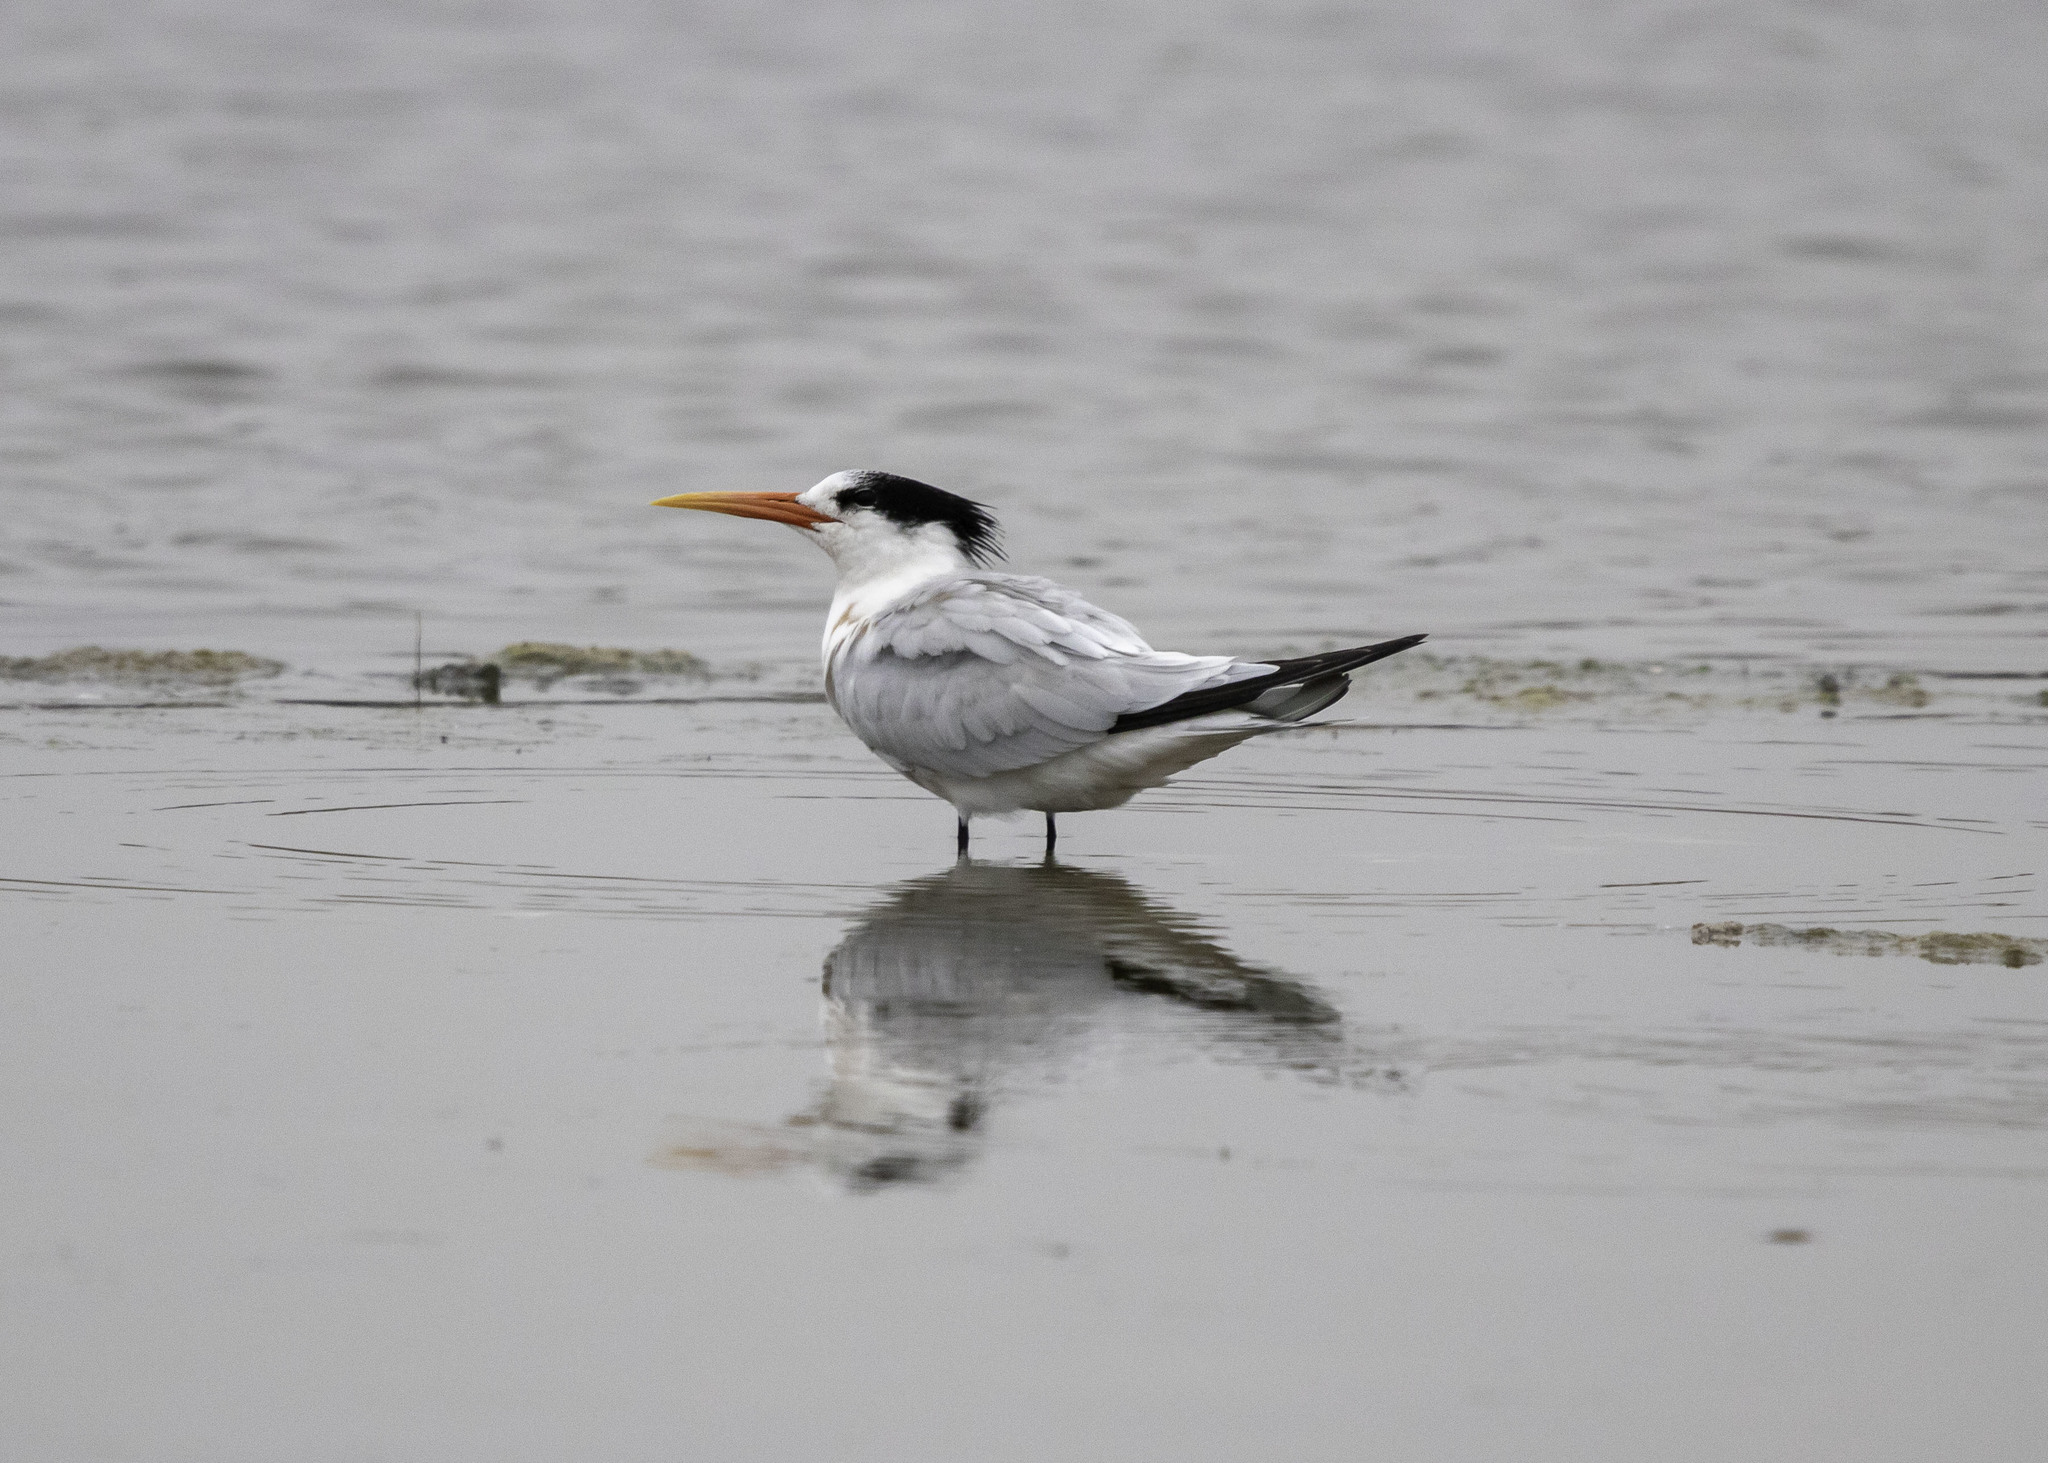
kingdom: Animalia
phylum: Chordata
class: Aves
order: Charadriiformes
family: Laridae
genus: Thalasseus
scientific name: Thalasseus elegans
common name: Elegant tern
